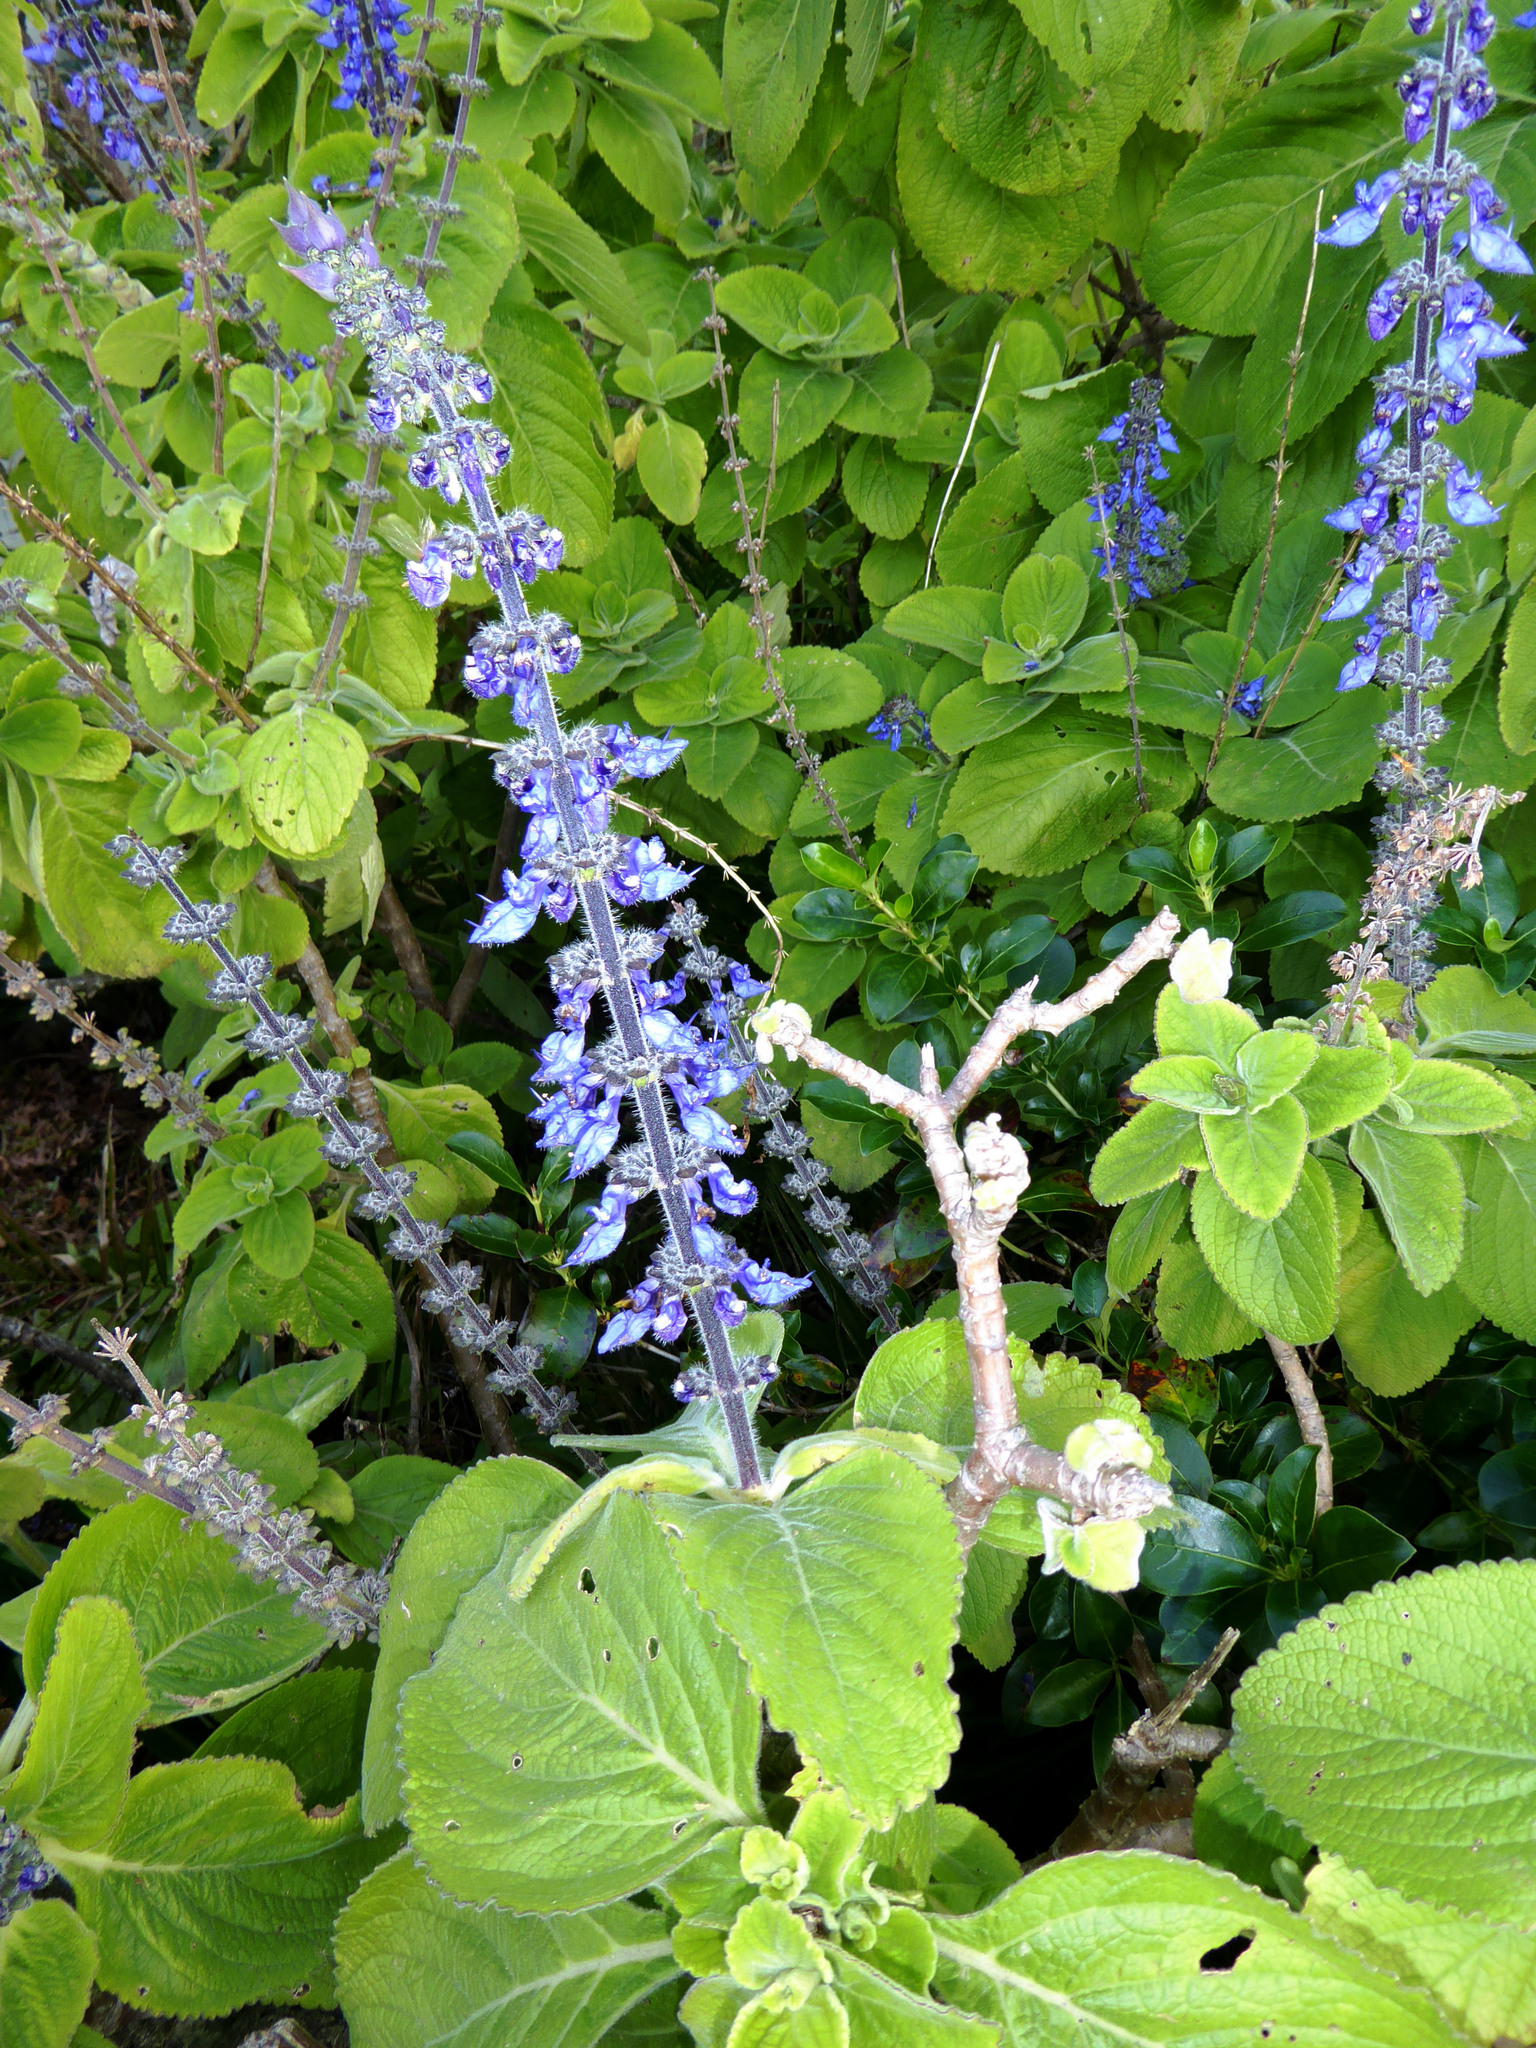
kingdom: Plantae
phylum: Tracheophyta
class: Magnoliopsida
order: Lamiales
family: Lamiaceae
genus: Coleus
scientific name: Coleus barbatus
